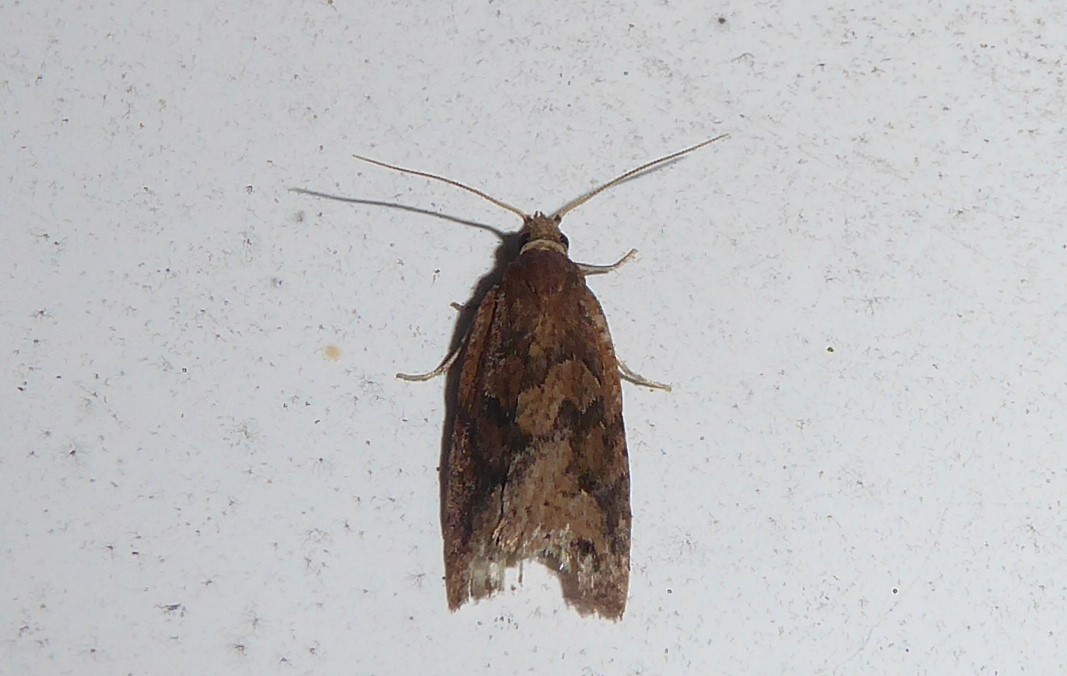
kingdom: Animalia
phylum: Arthropoda
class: Insecta
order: Lepidoptera
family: Tortricidae
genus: Planotortrix
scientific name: Planotortrix notophaea
